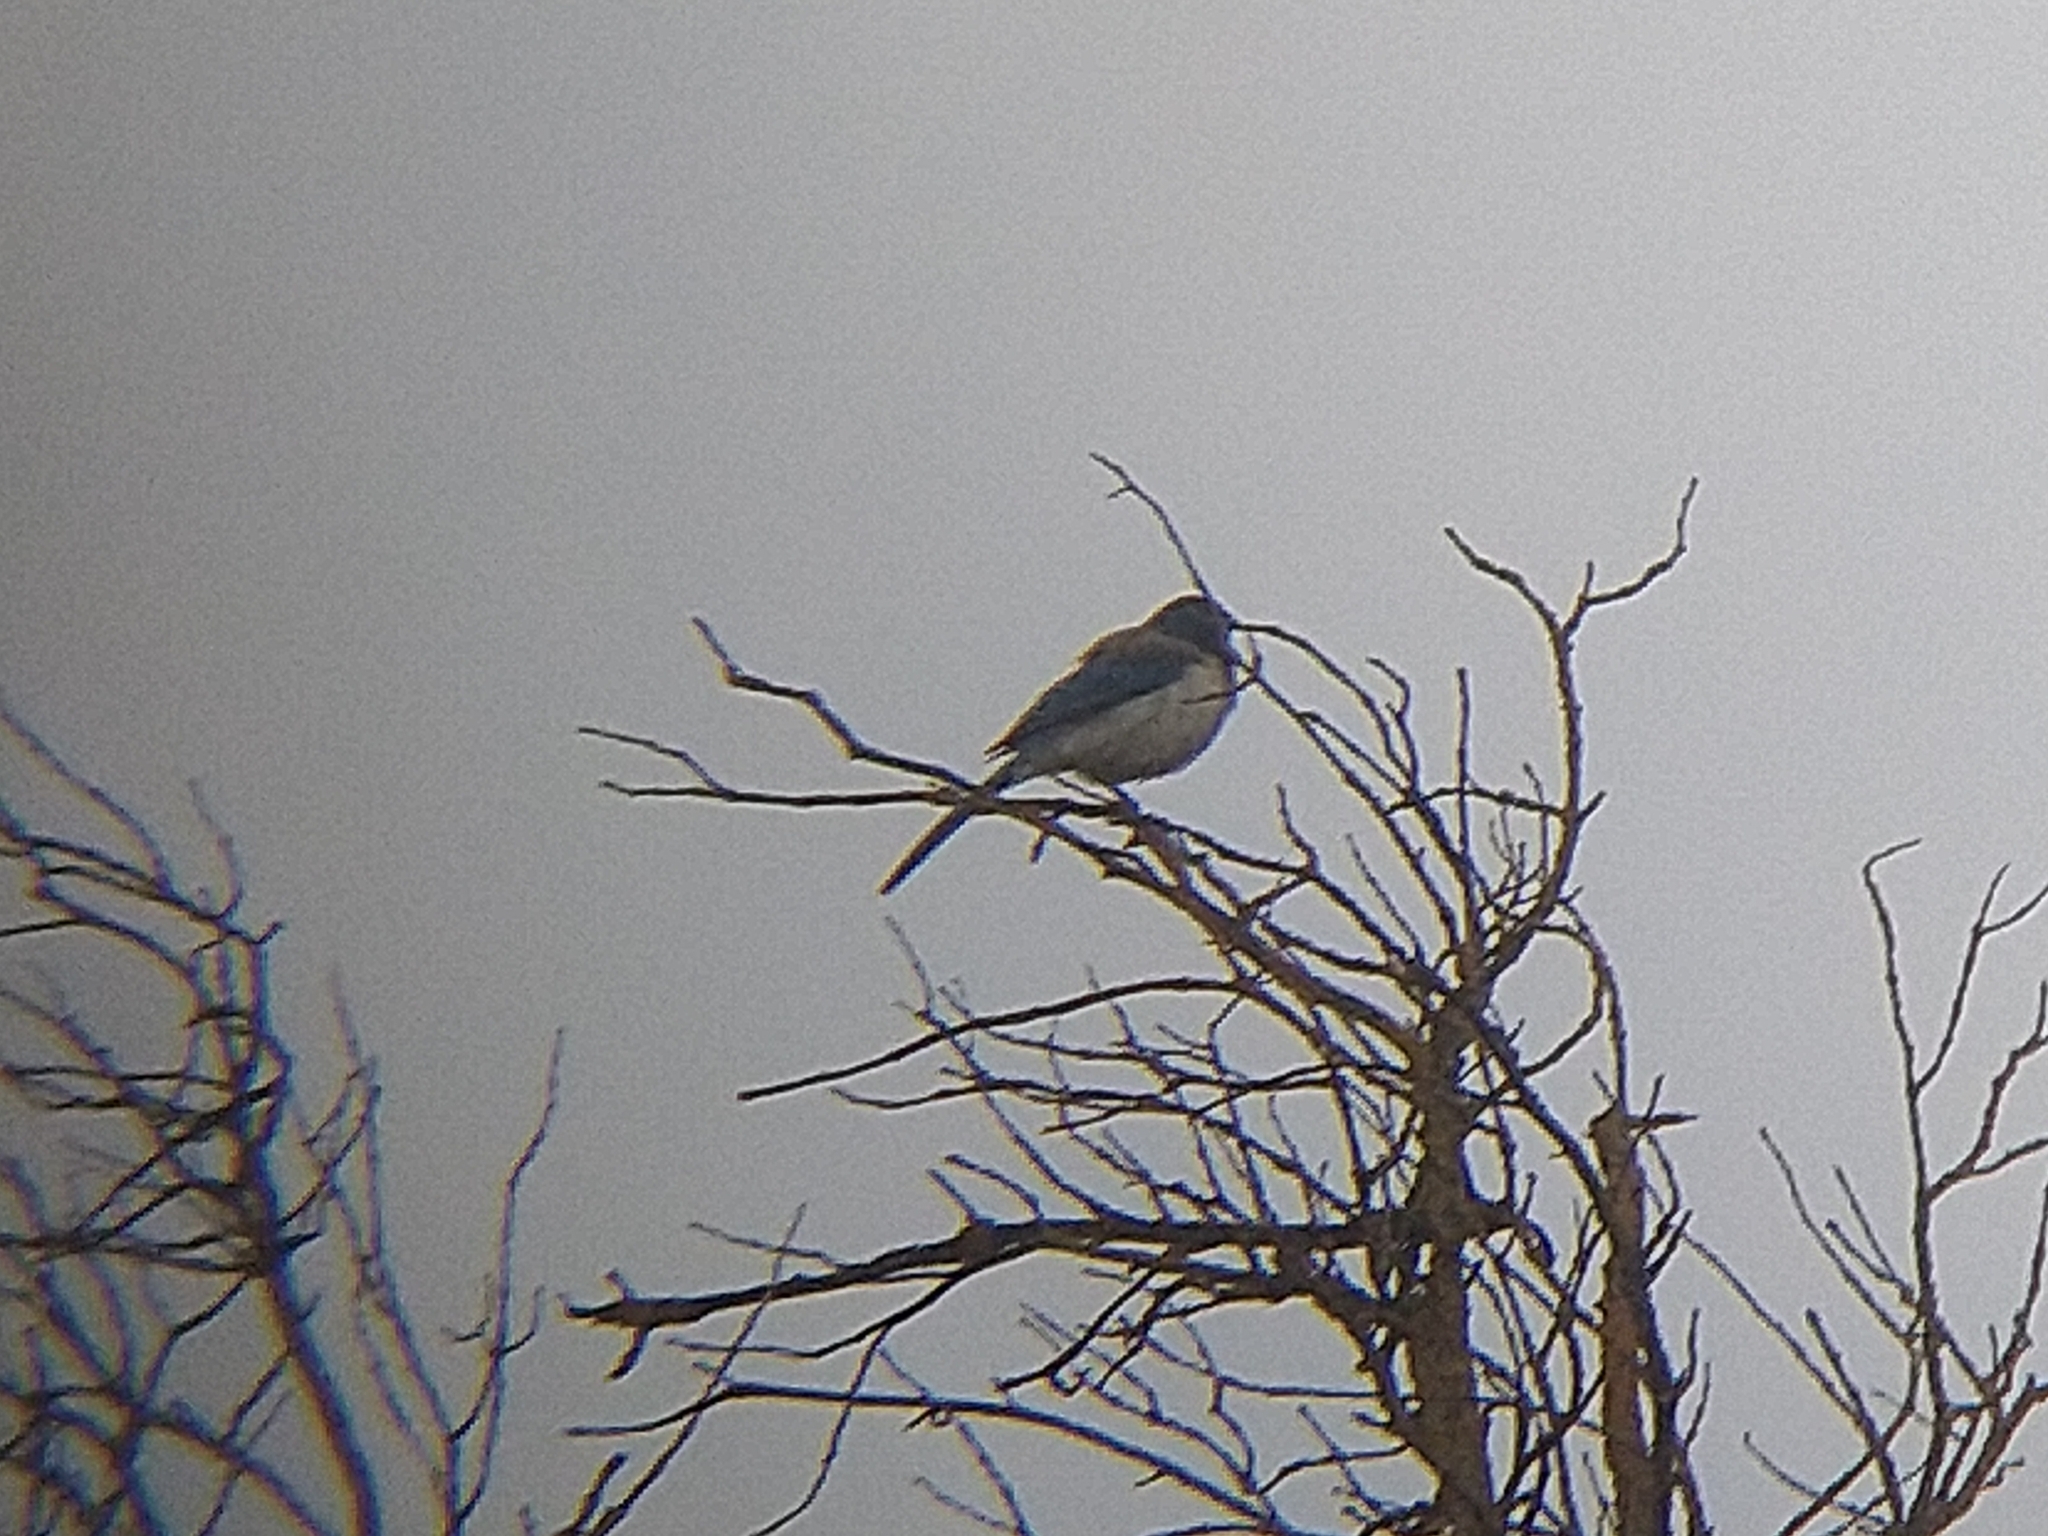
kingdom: Animalia
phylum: Chordata
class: Aves
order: Passeriformes
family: Corvidae
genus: Aphelocoma
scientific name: Aphelocoma californica
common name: California scrub-jay
